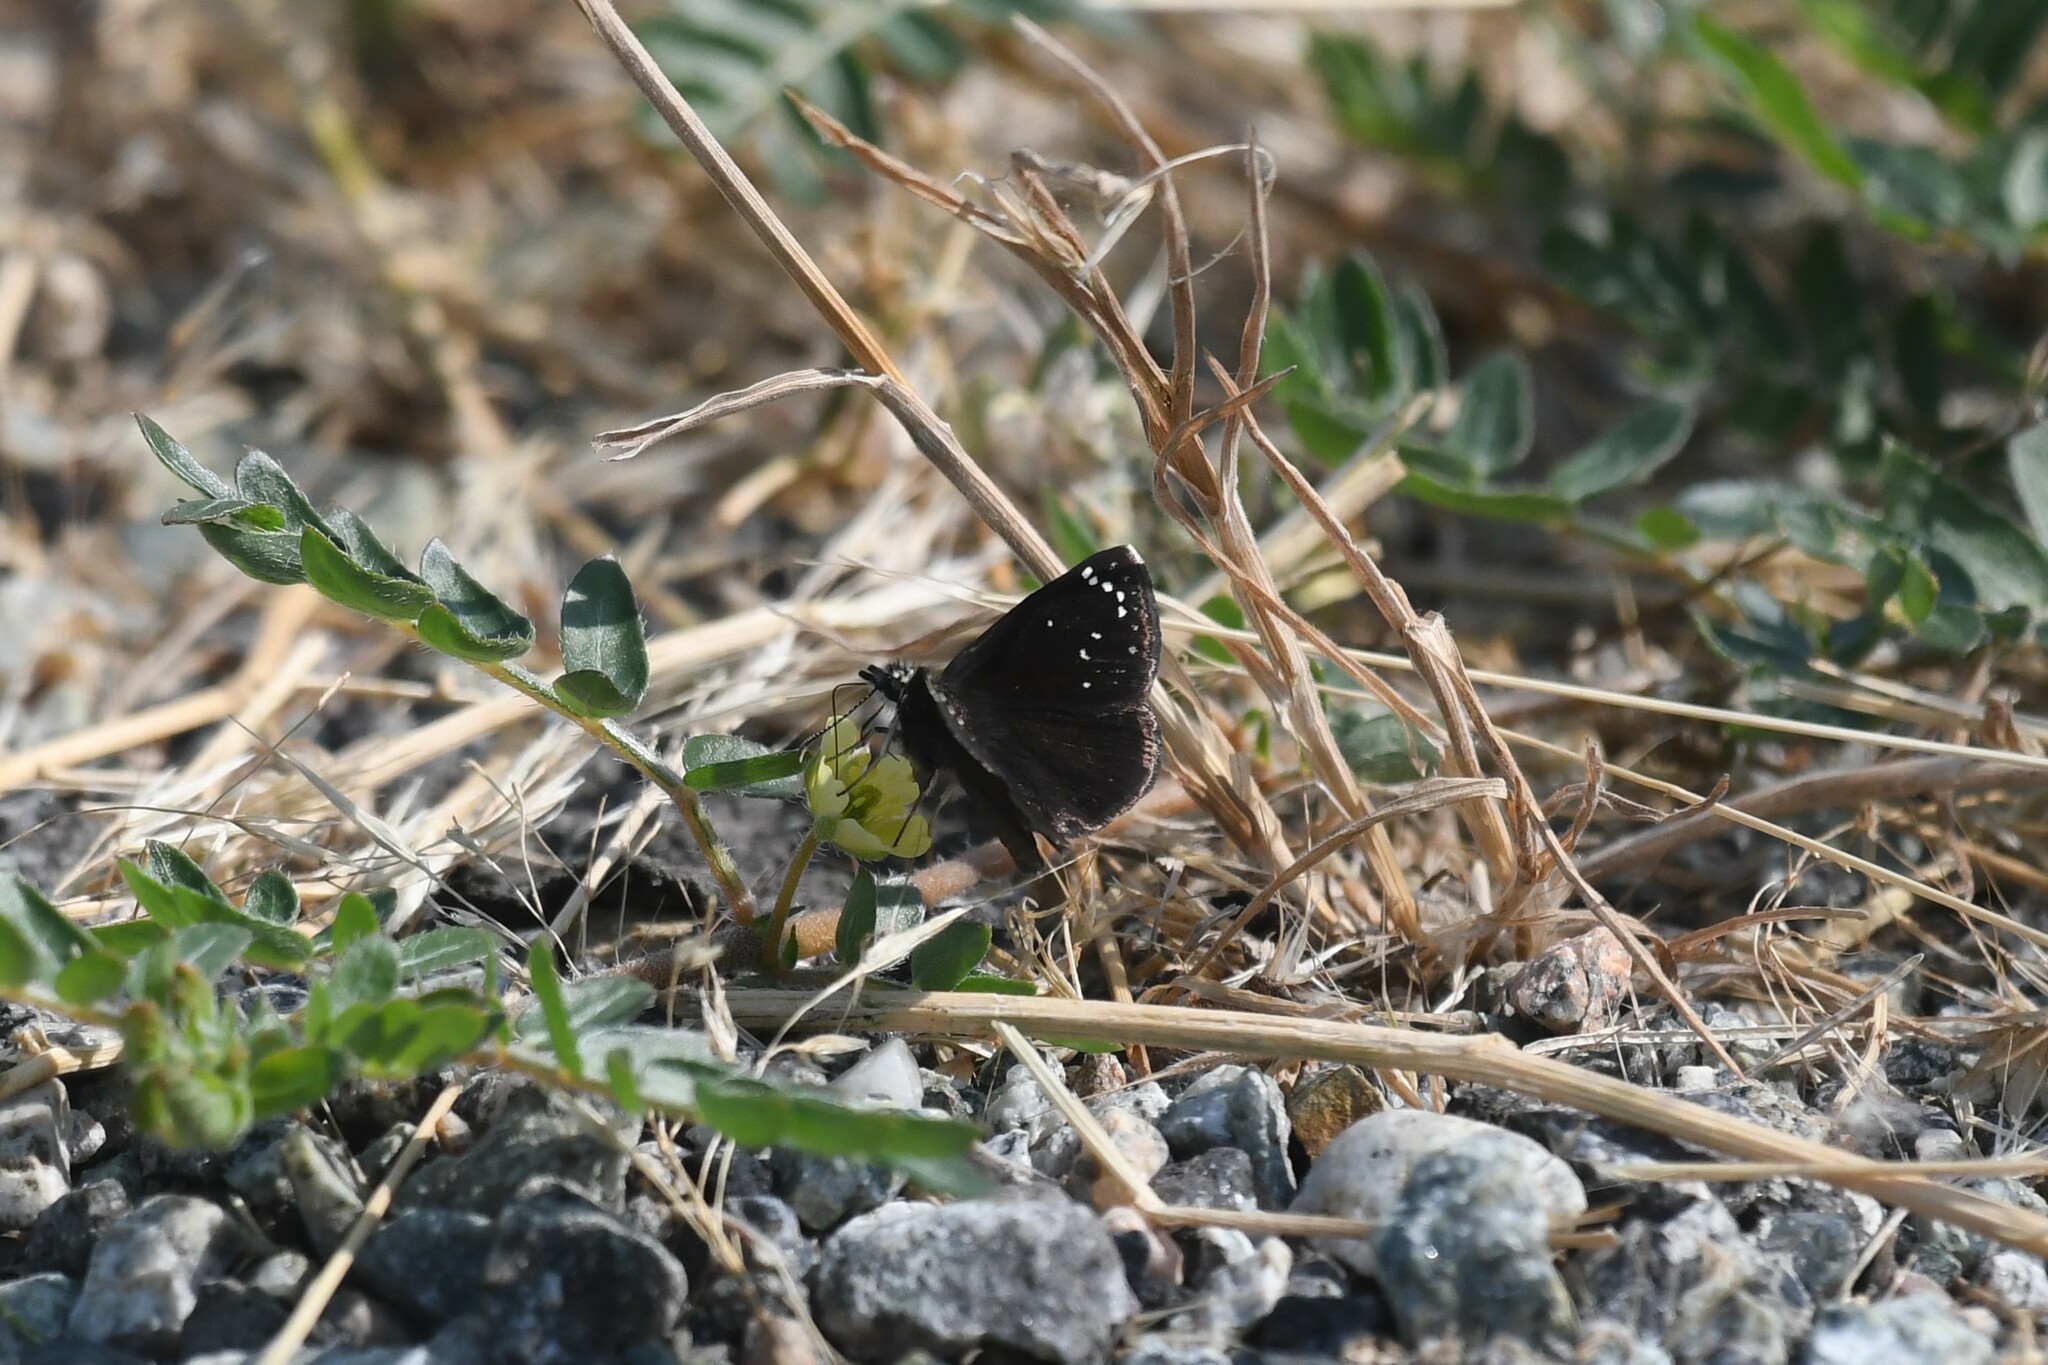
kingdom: Animalia
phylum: Arthropoda
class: Insecta
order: Lepidoptera
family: Hesperiidae
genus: Pholisora
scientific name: Pholisora catullus
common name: Common sootywing
